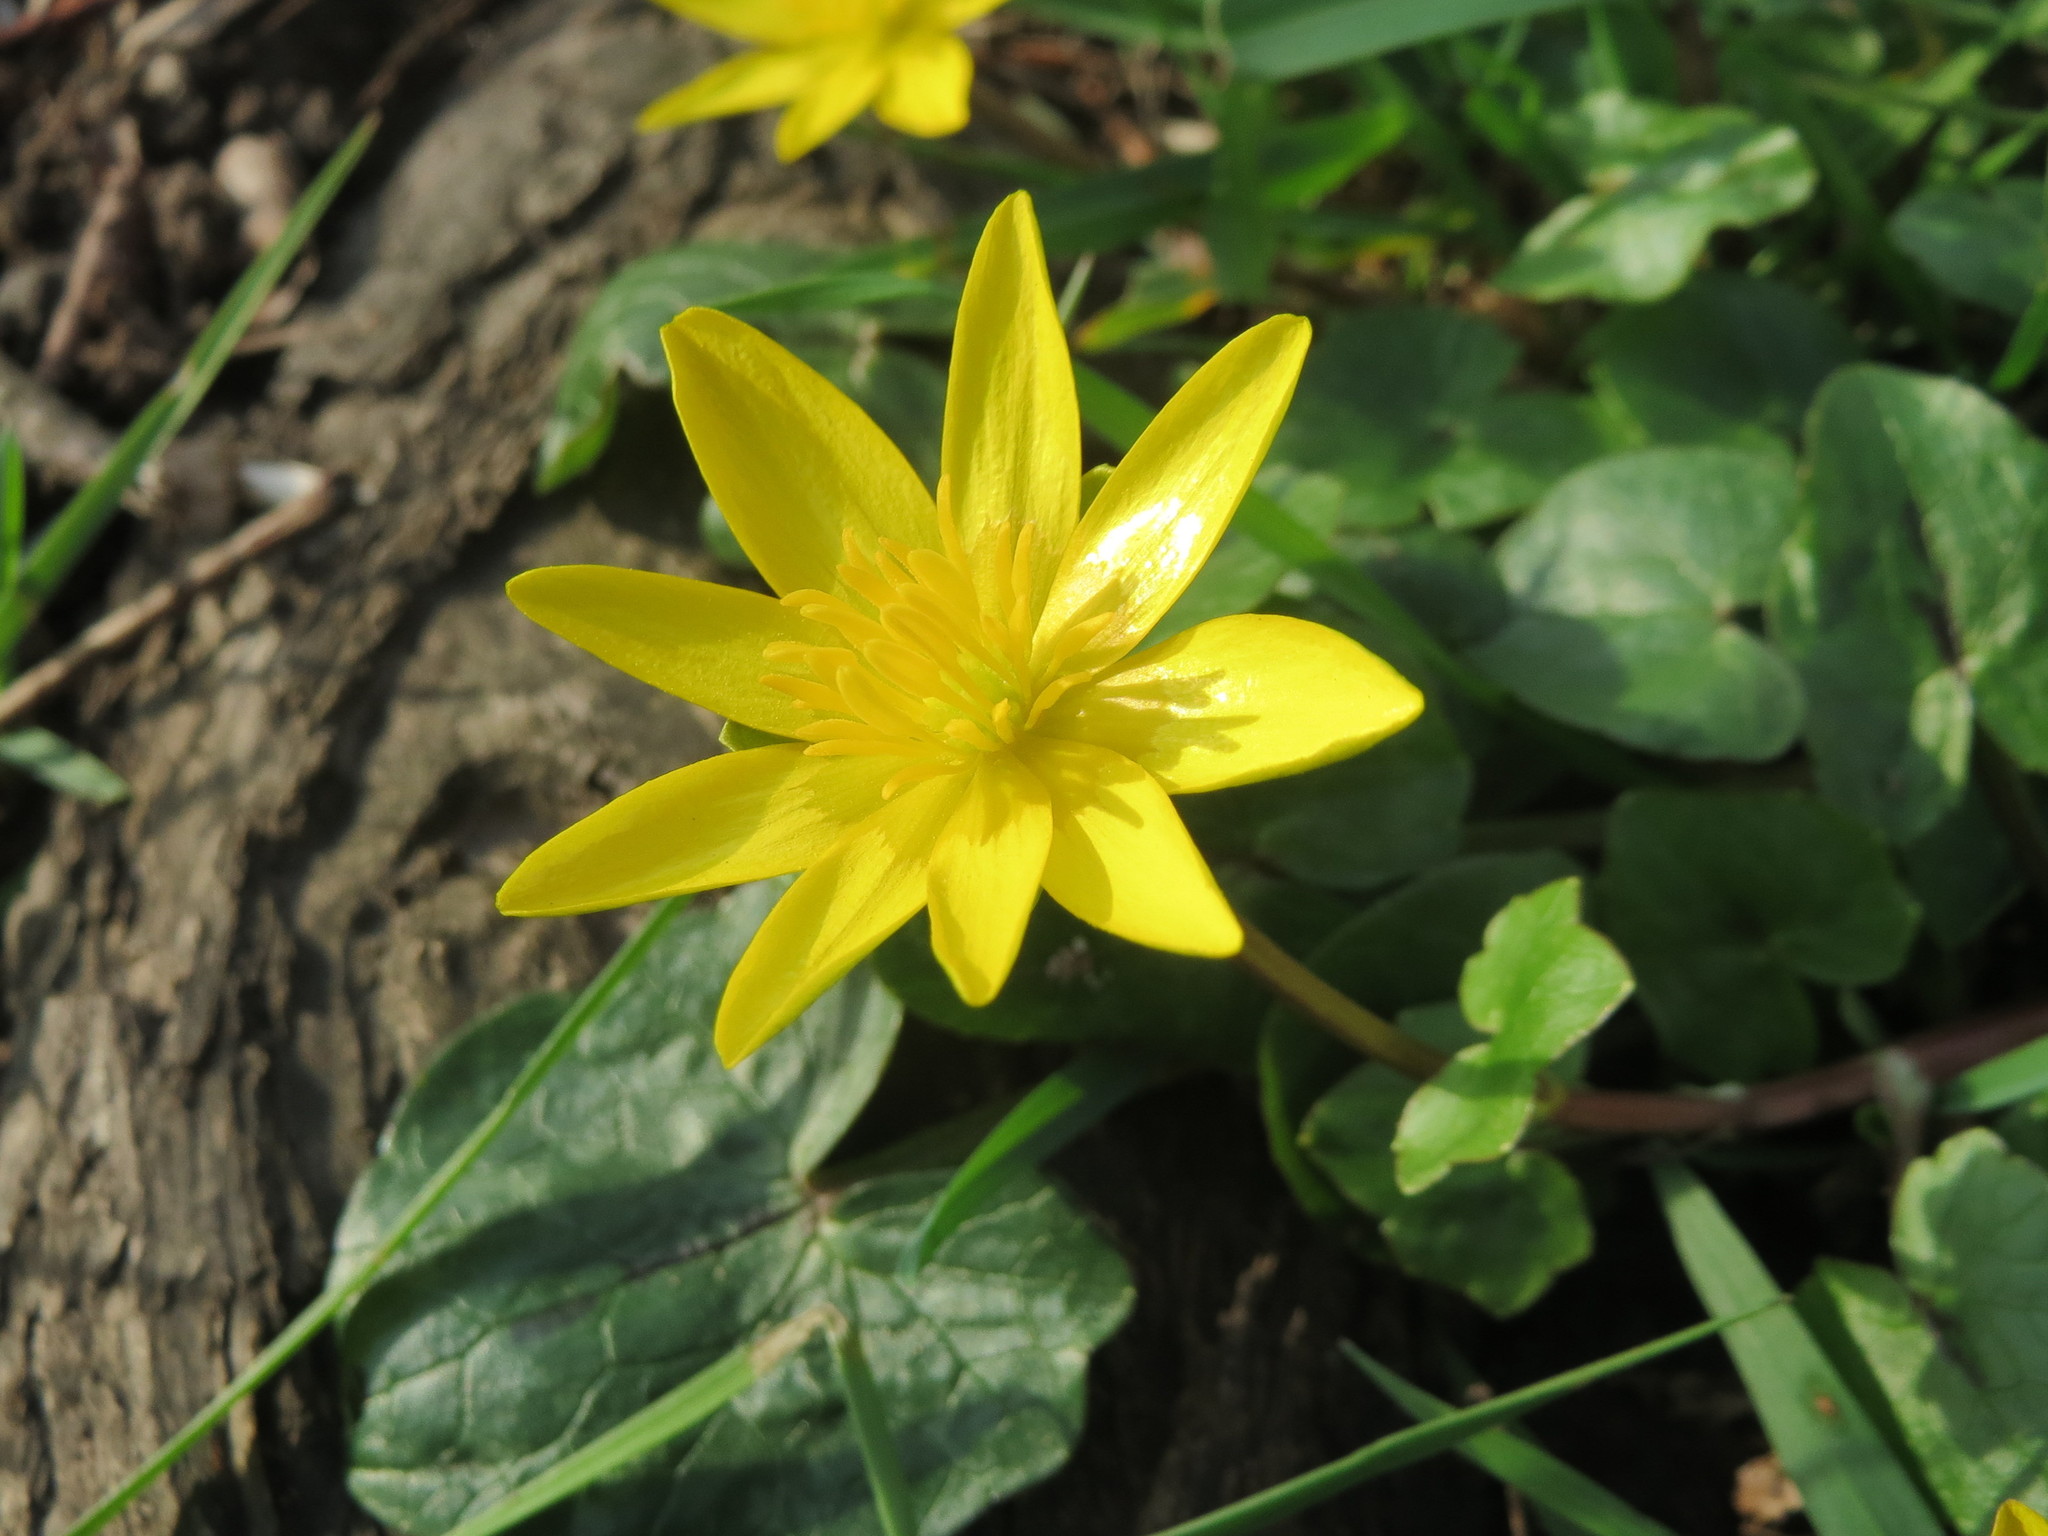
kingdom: Plantae
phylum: Tracheophyta
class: Magnoliopsida
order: Ranunculales
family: Ranunculaceae
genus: Ficaria
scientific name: Ficaria verna
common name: Lesser celandine
